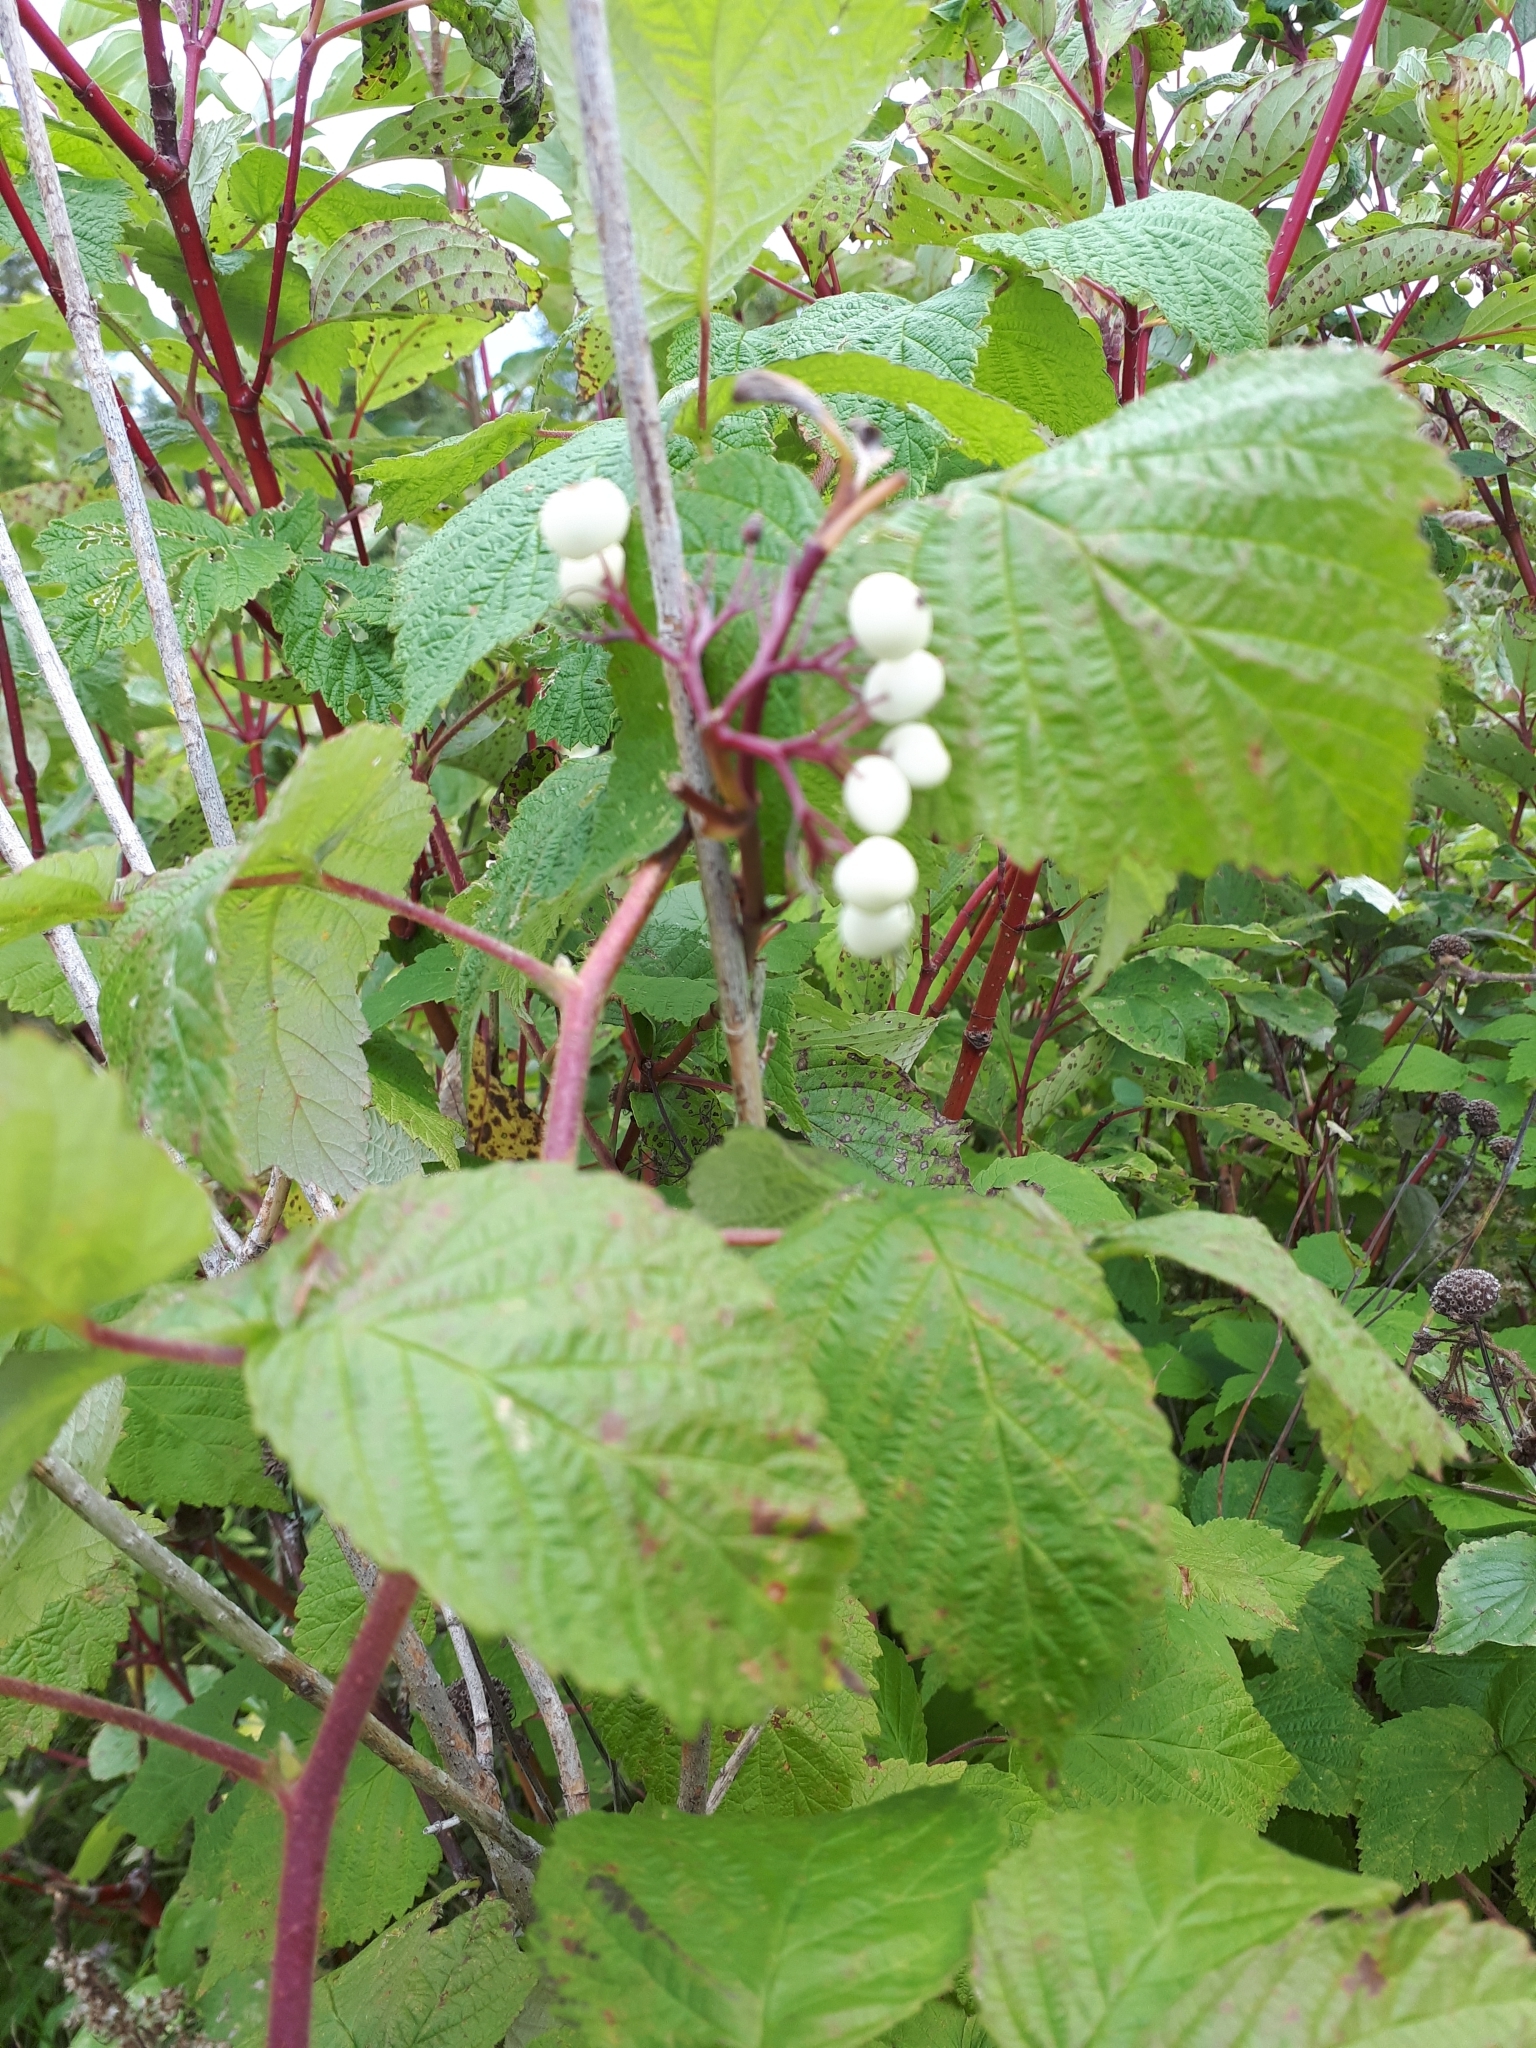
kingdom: Plantae
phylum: Tracheophyta
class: Magnoliopsida
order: Cornales
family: Cornaceae
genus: Cornus
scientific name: Cornus sericea
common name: Red-osier dogwood
